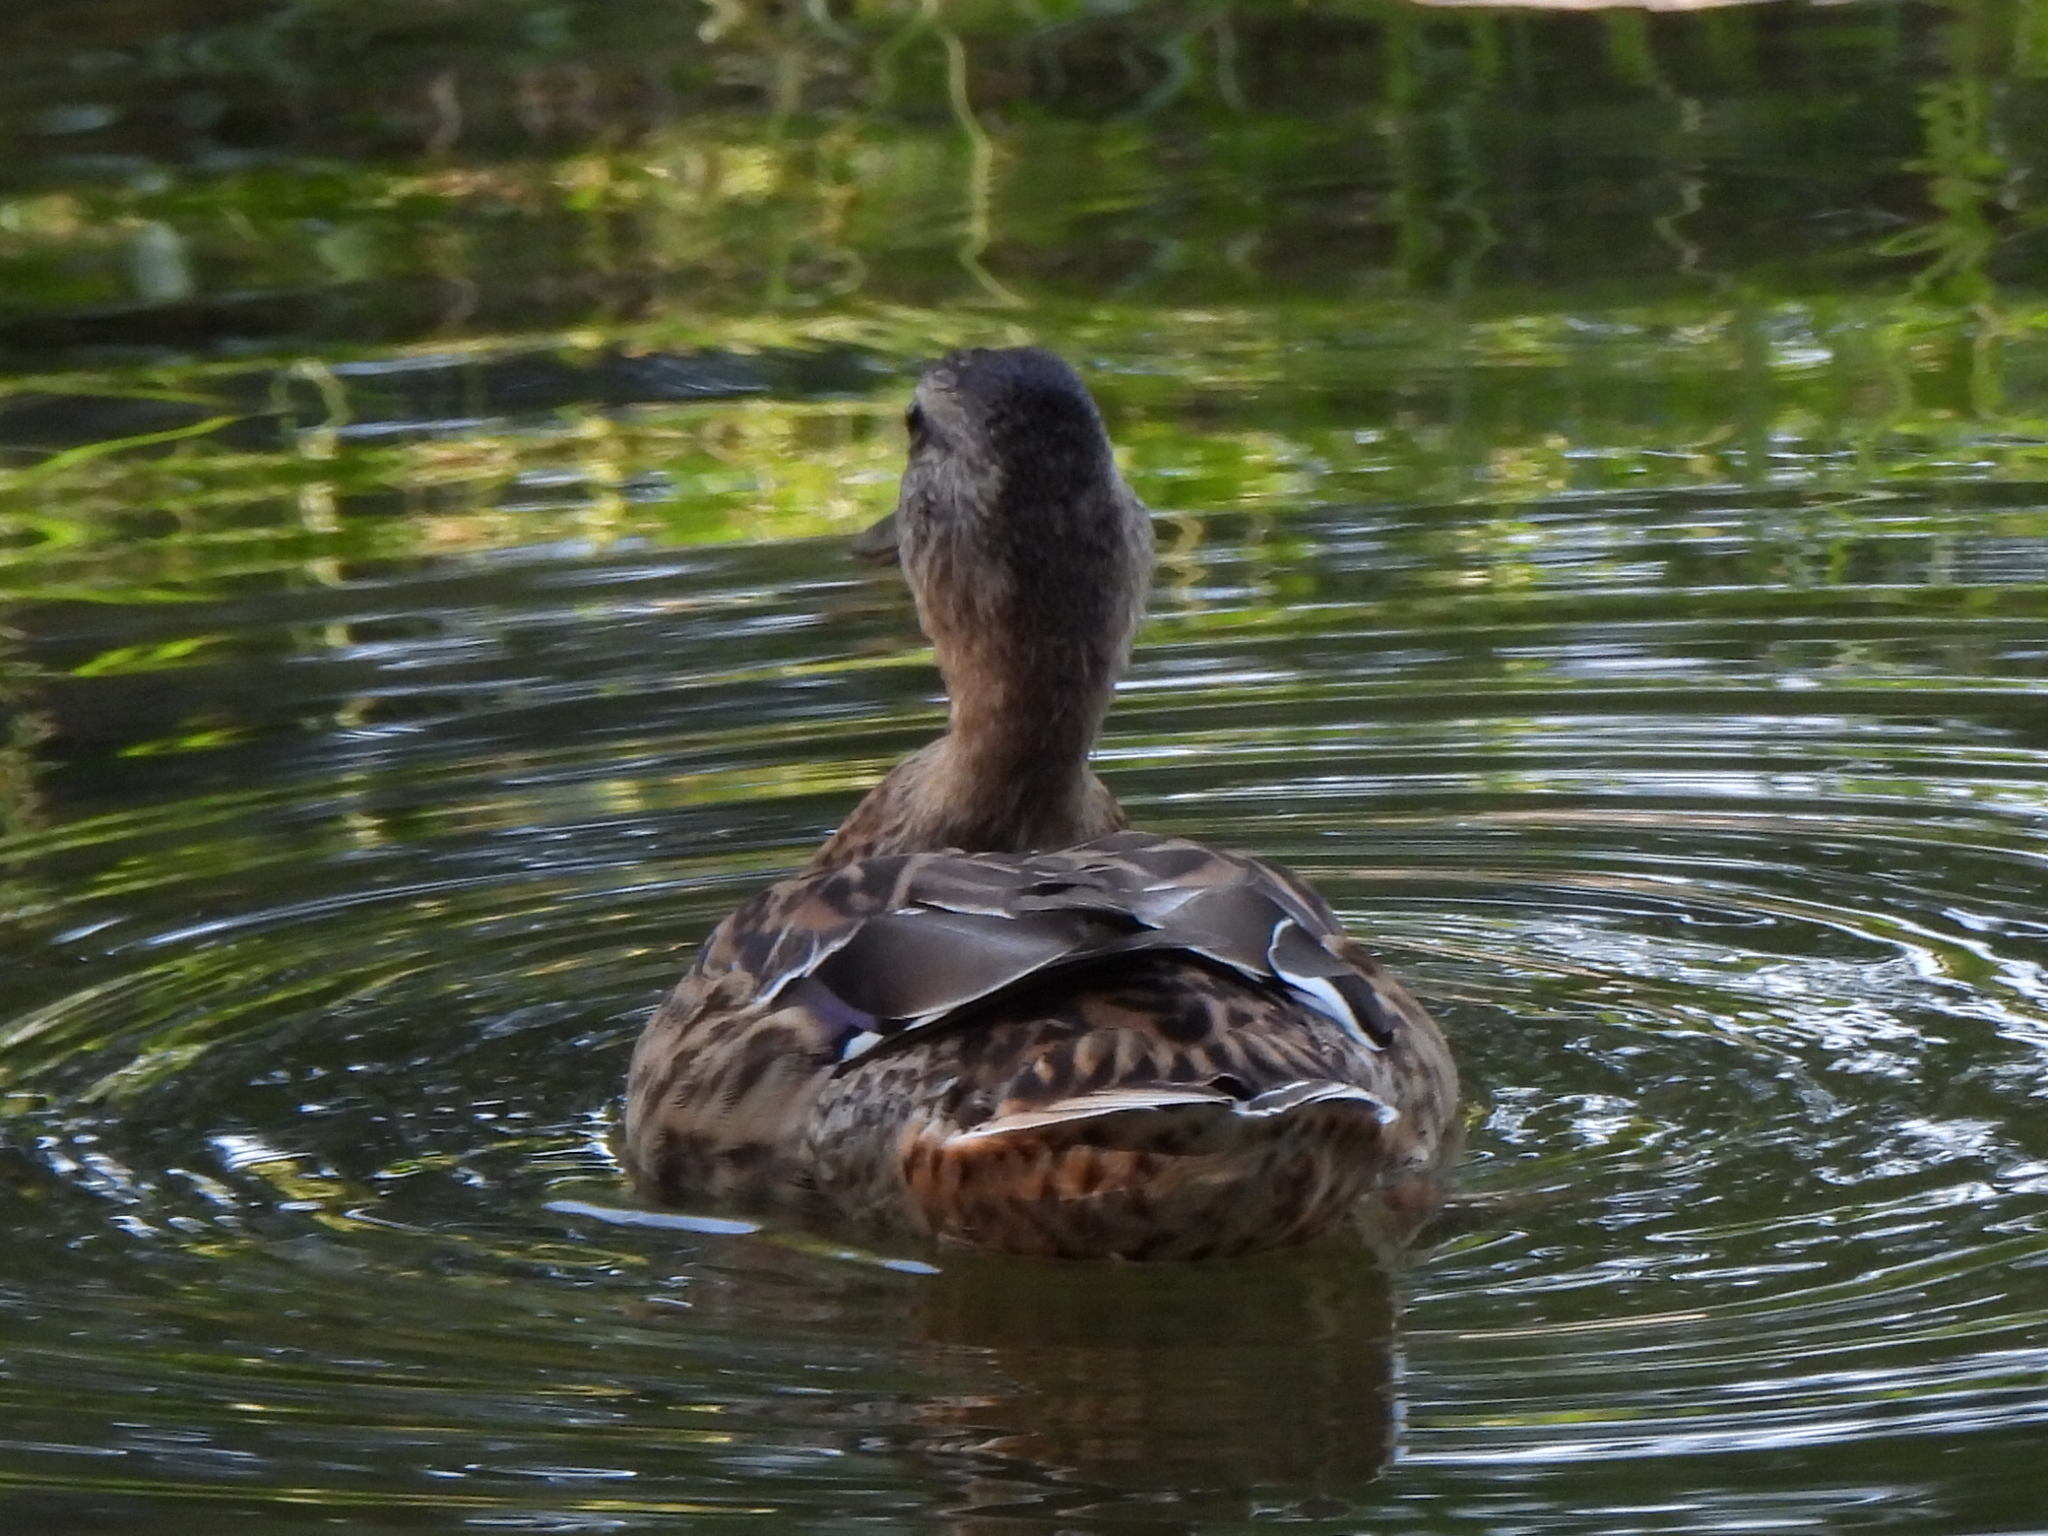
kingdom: Animalia
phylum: Chordata
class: Aves
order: Anseriformes
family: Anatidae
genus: Anas
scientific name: Anas platyrhynchos
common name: Mallard
